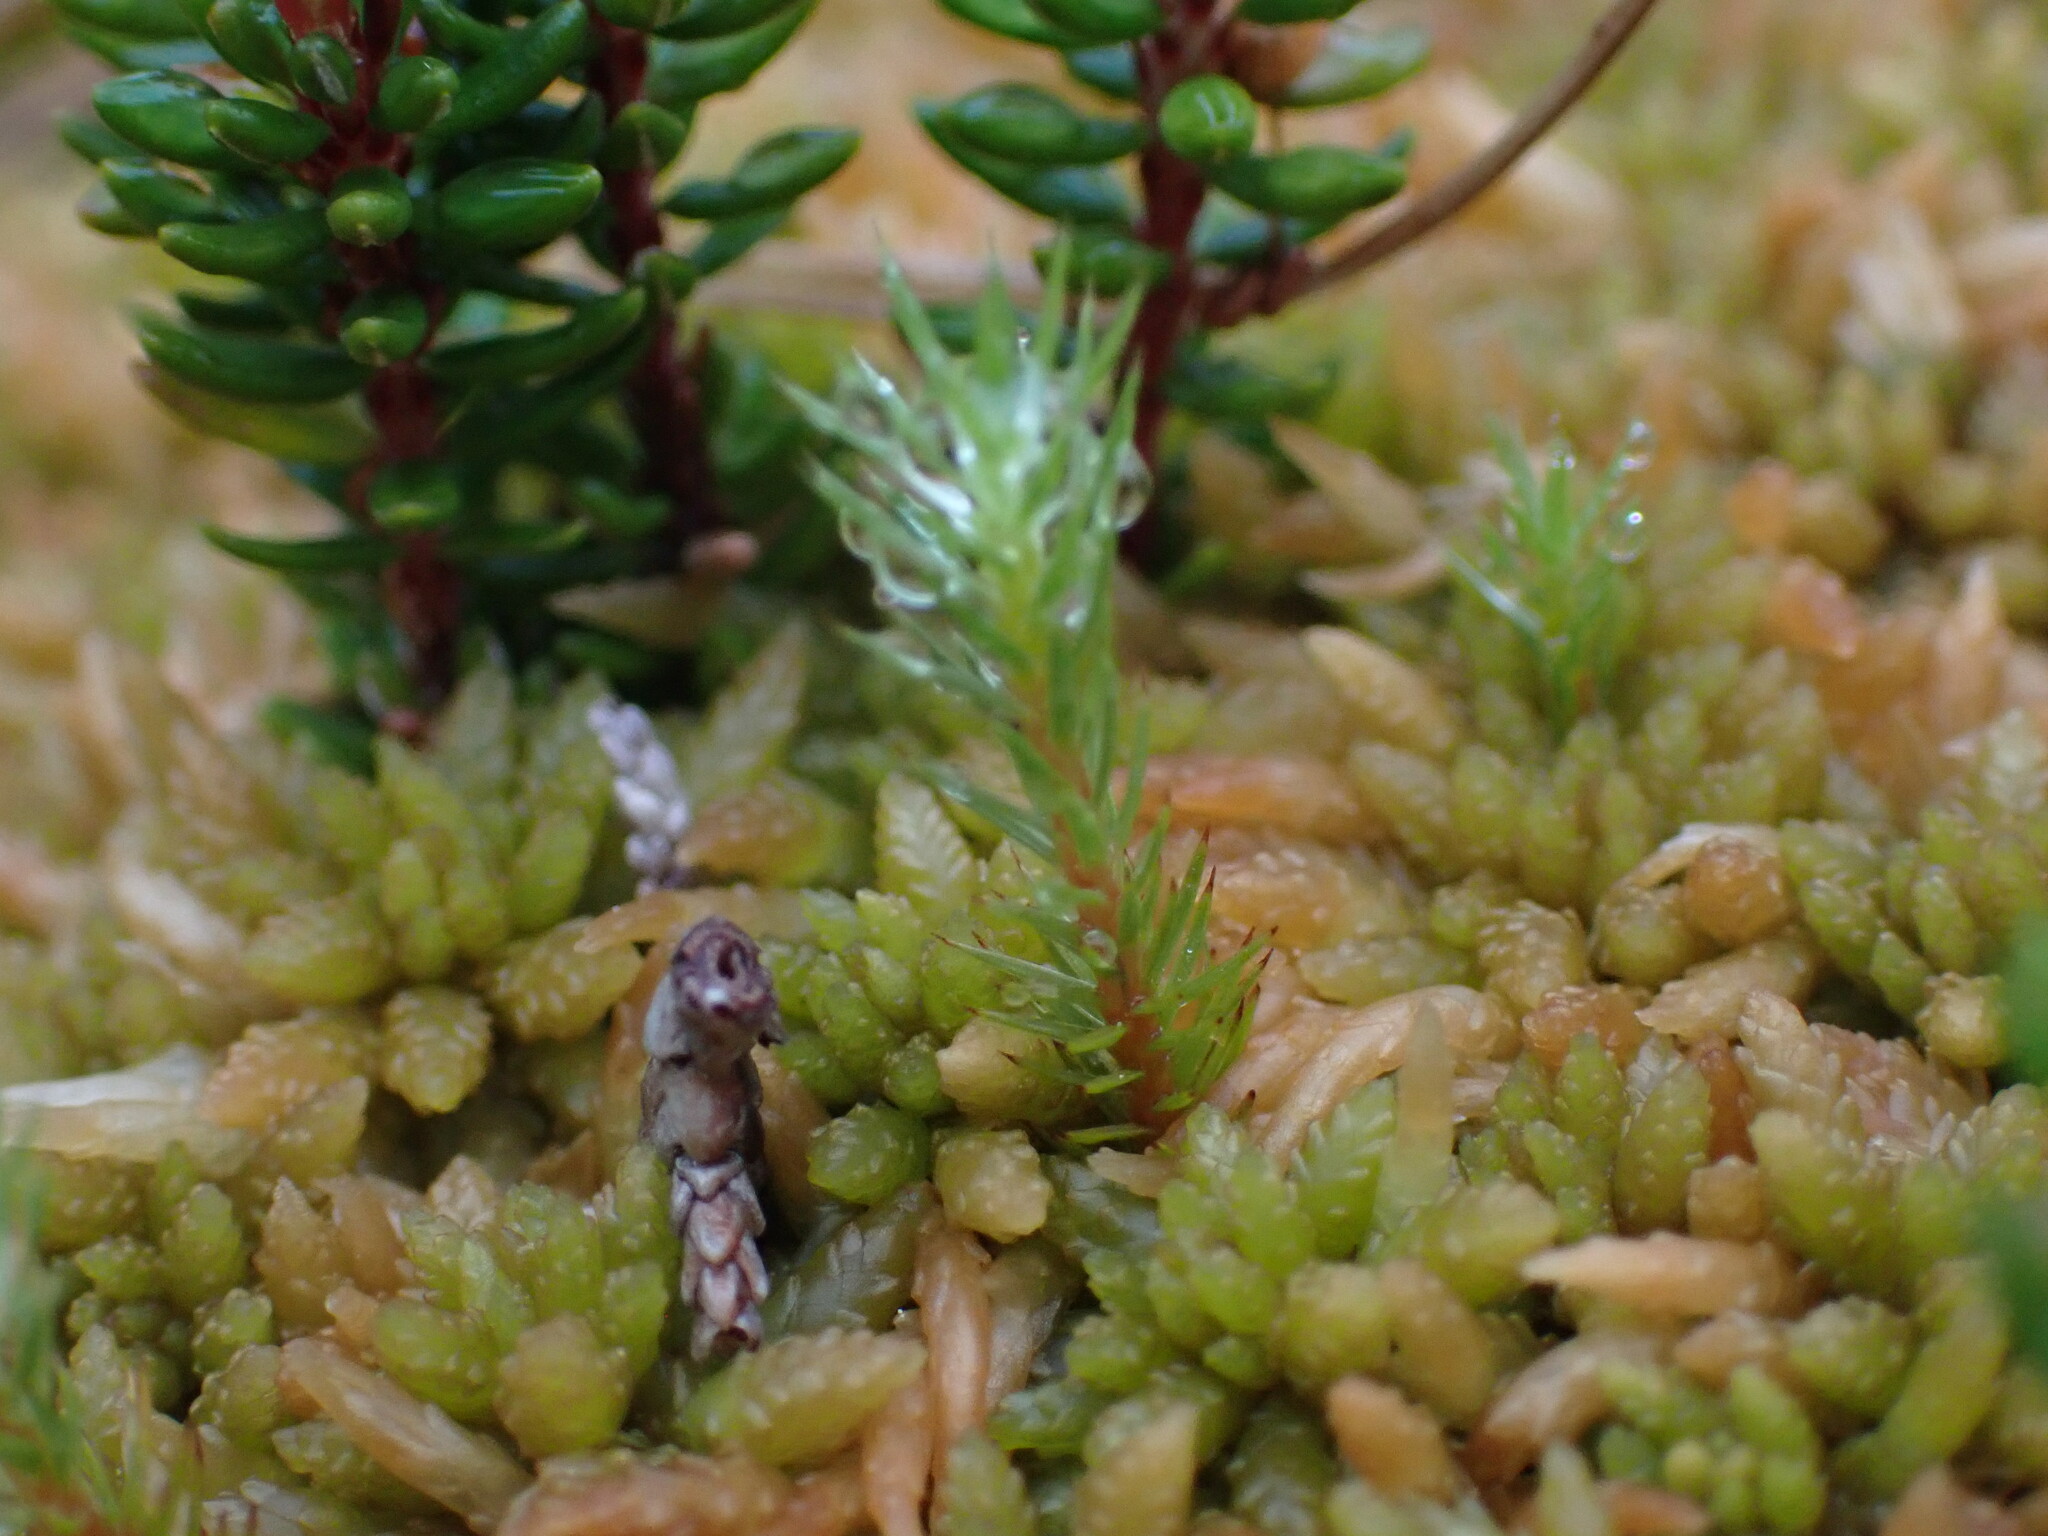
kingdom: Plantae
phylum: Bryophyta
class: Polytrichopsida
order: Polytrichales
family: Polytrichaceae
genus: Polytrichum
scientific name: Polytrichum strictum
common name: Bog haircap moss
